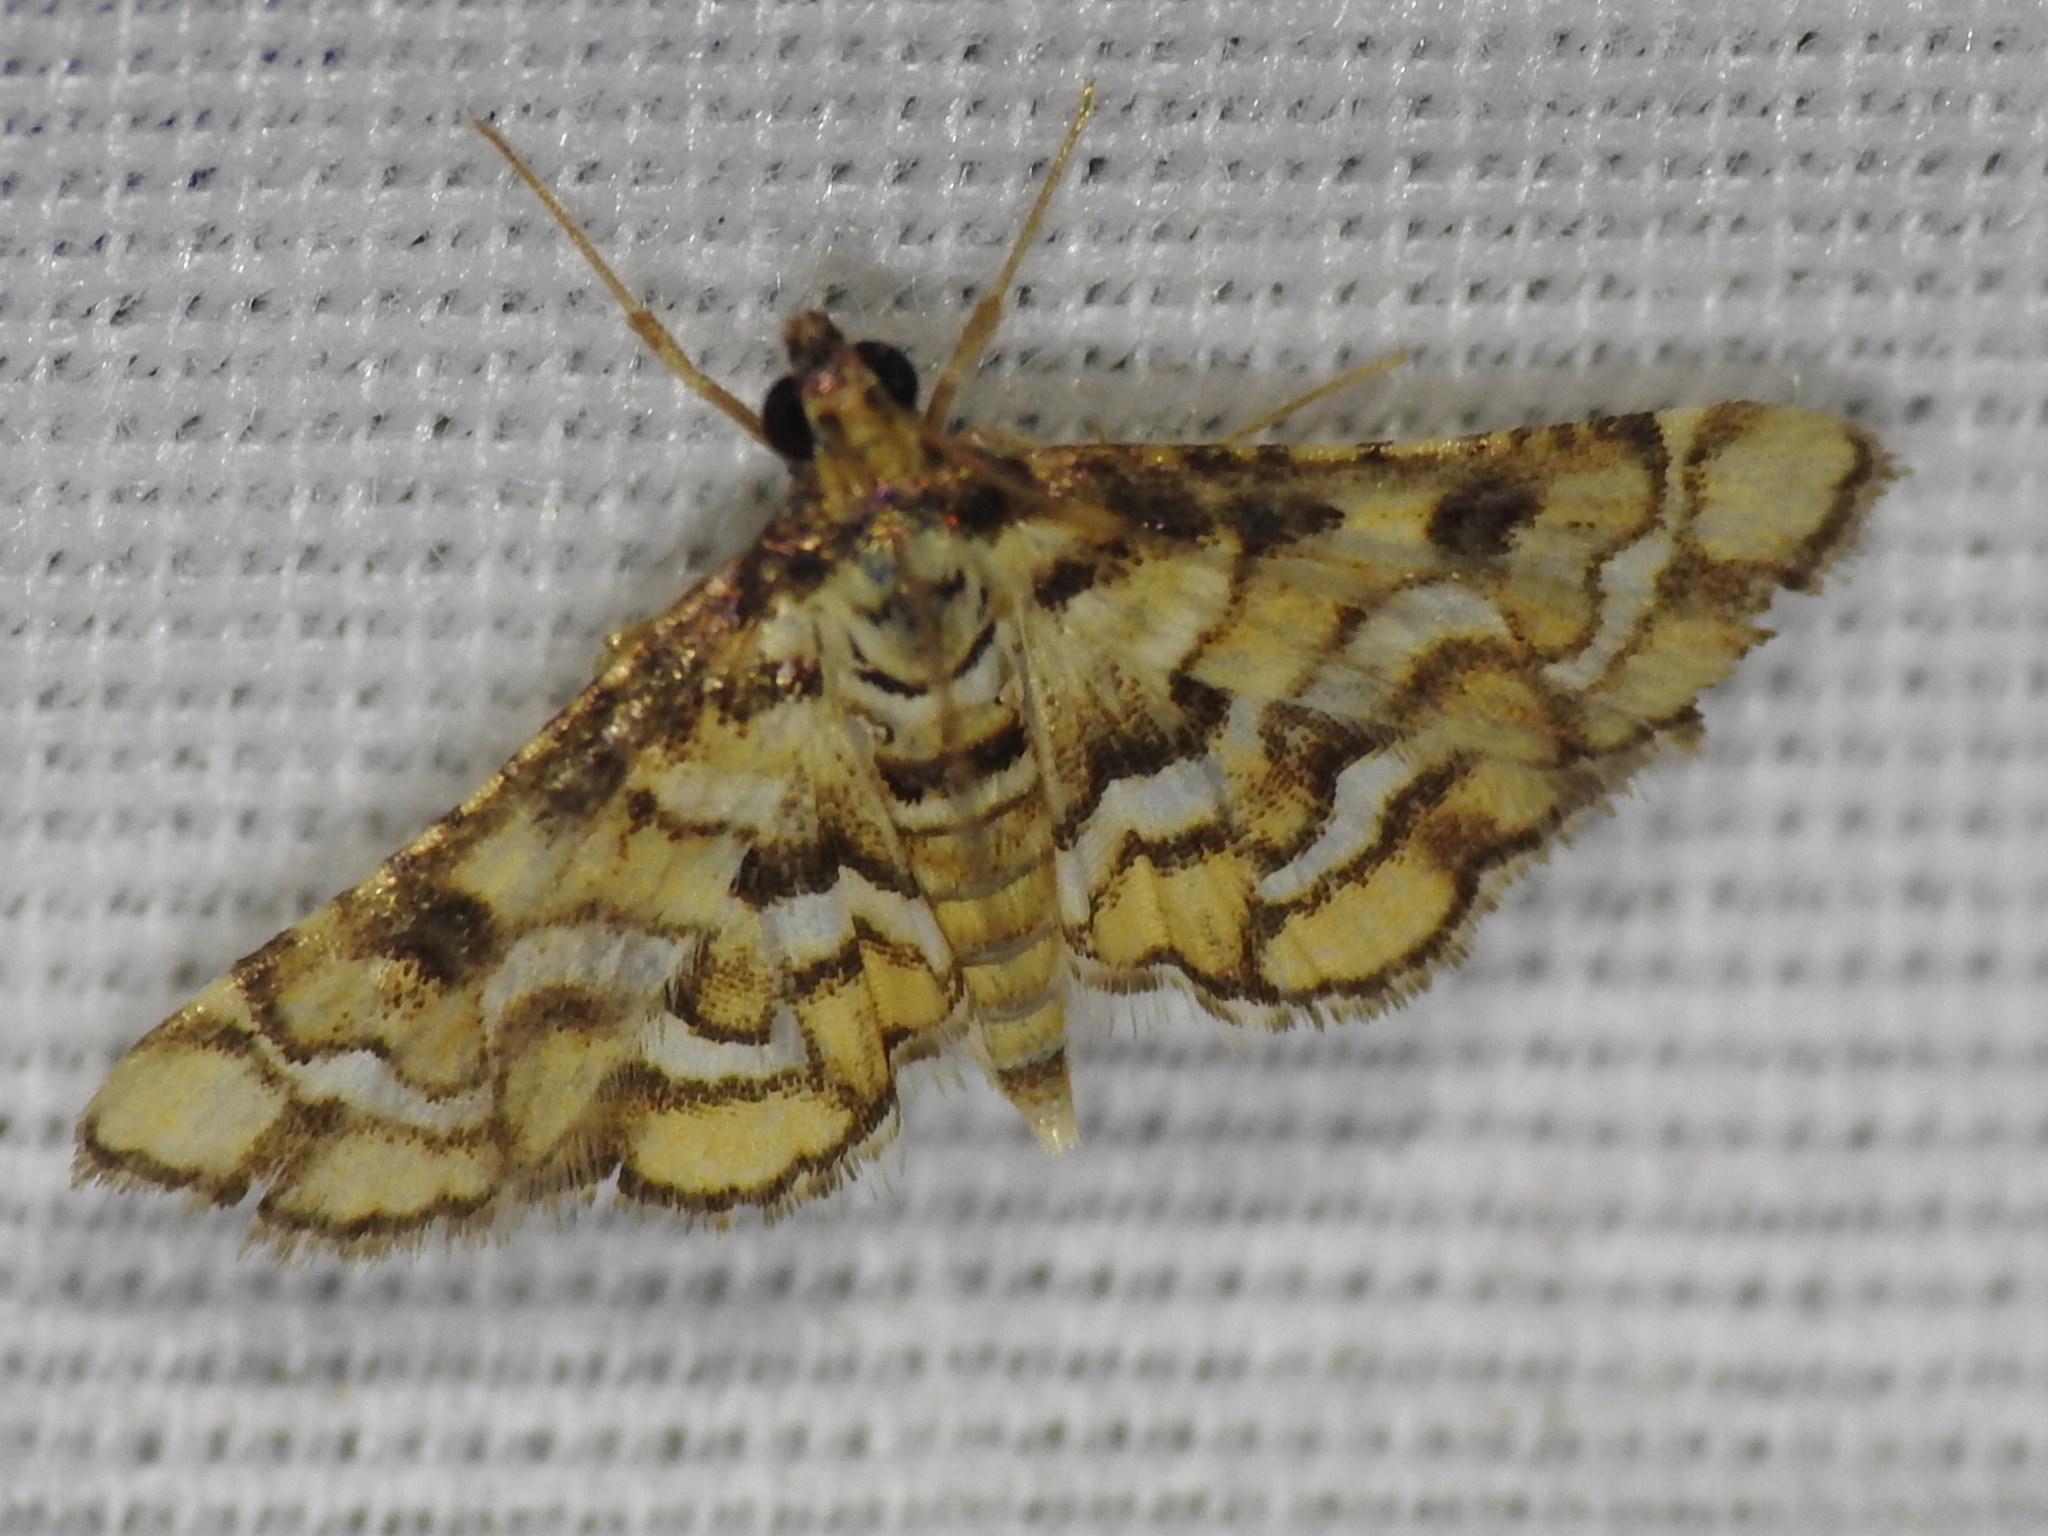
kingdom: Animalia
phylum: Arthropoda
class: Insecta
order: Lepidoptera
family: Crambidae
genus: Hileithia
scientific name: Hileithia magualis
